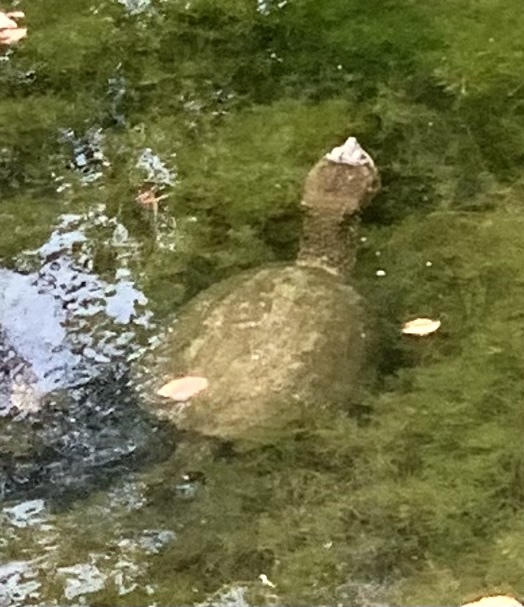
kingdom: Animalia
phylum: Chordata
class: Testudines
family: Chelydridae
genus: Chelydra
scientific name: Chelydra serpentina
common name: Common snapping turtle
